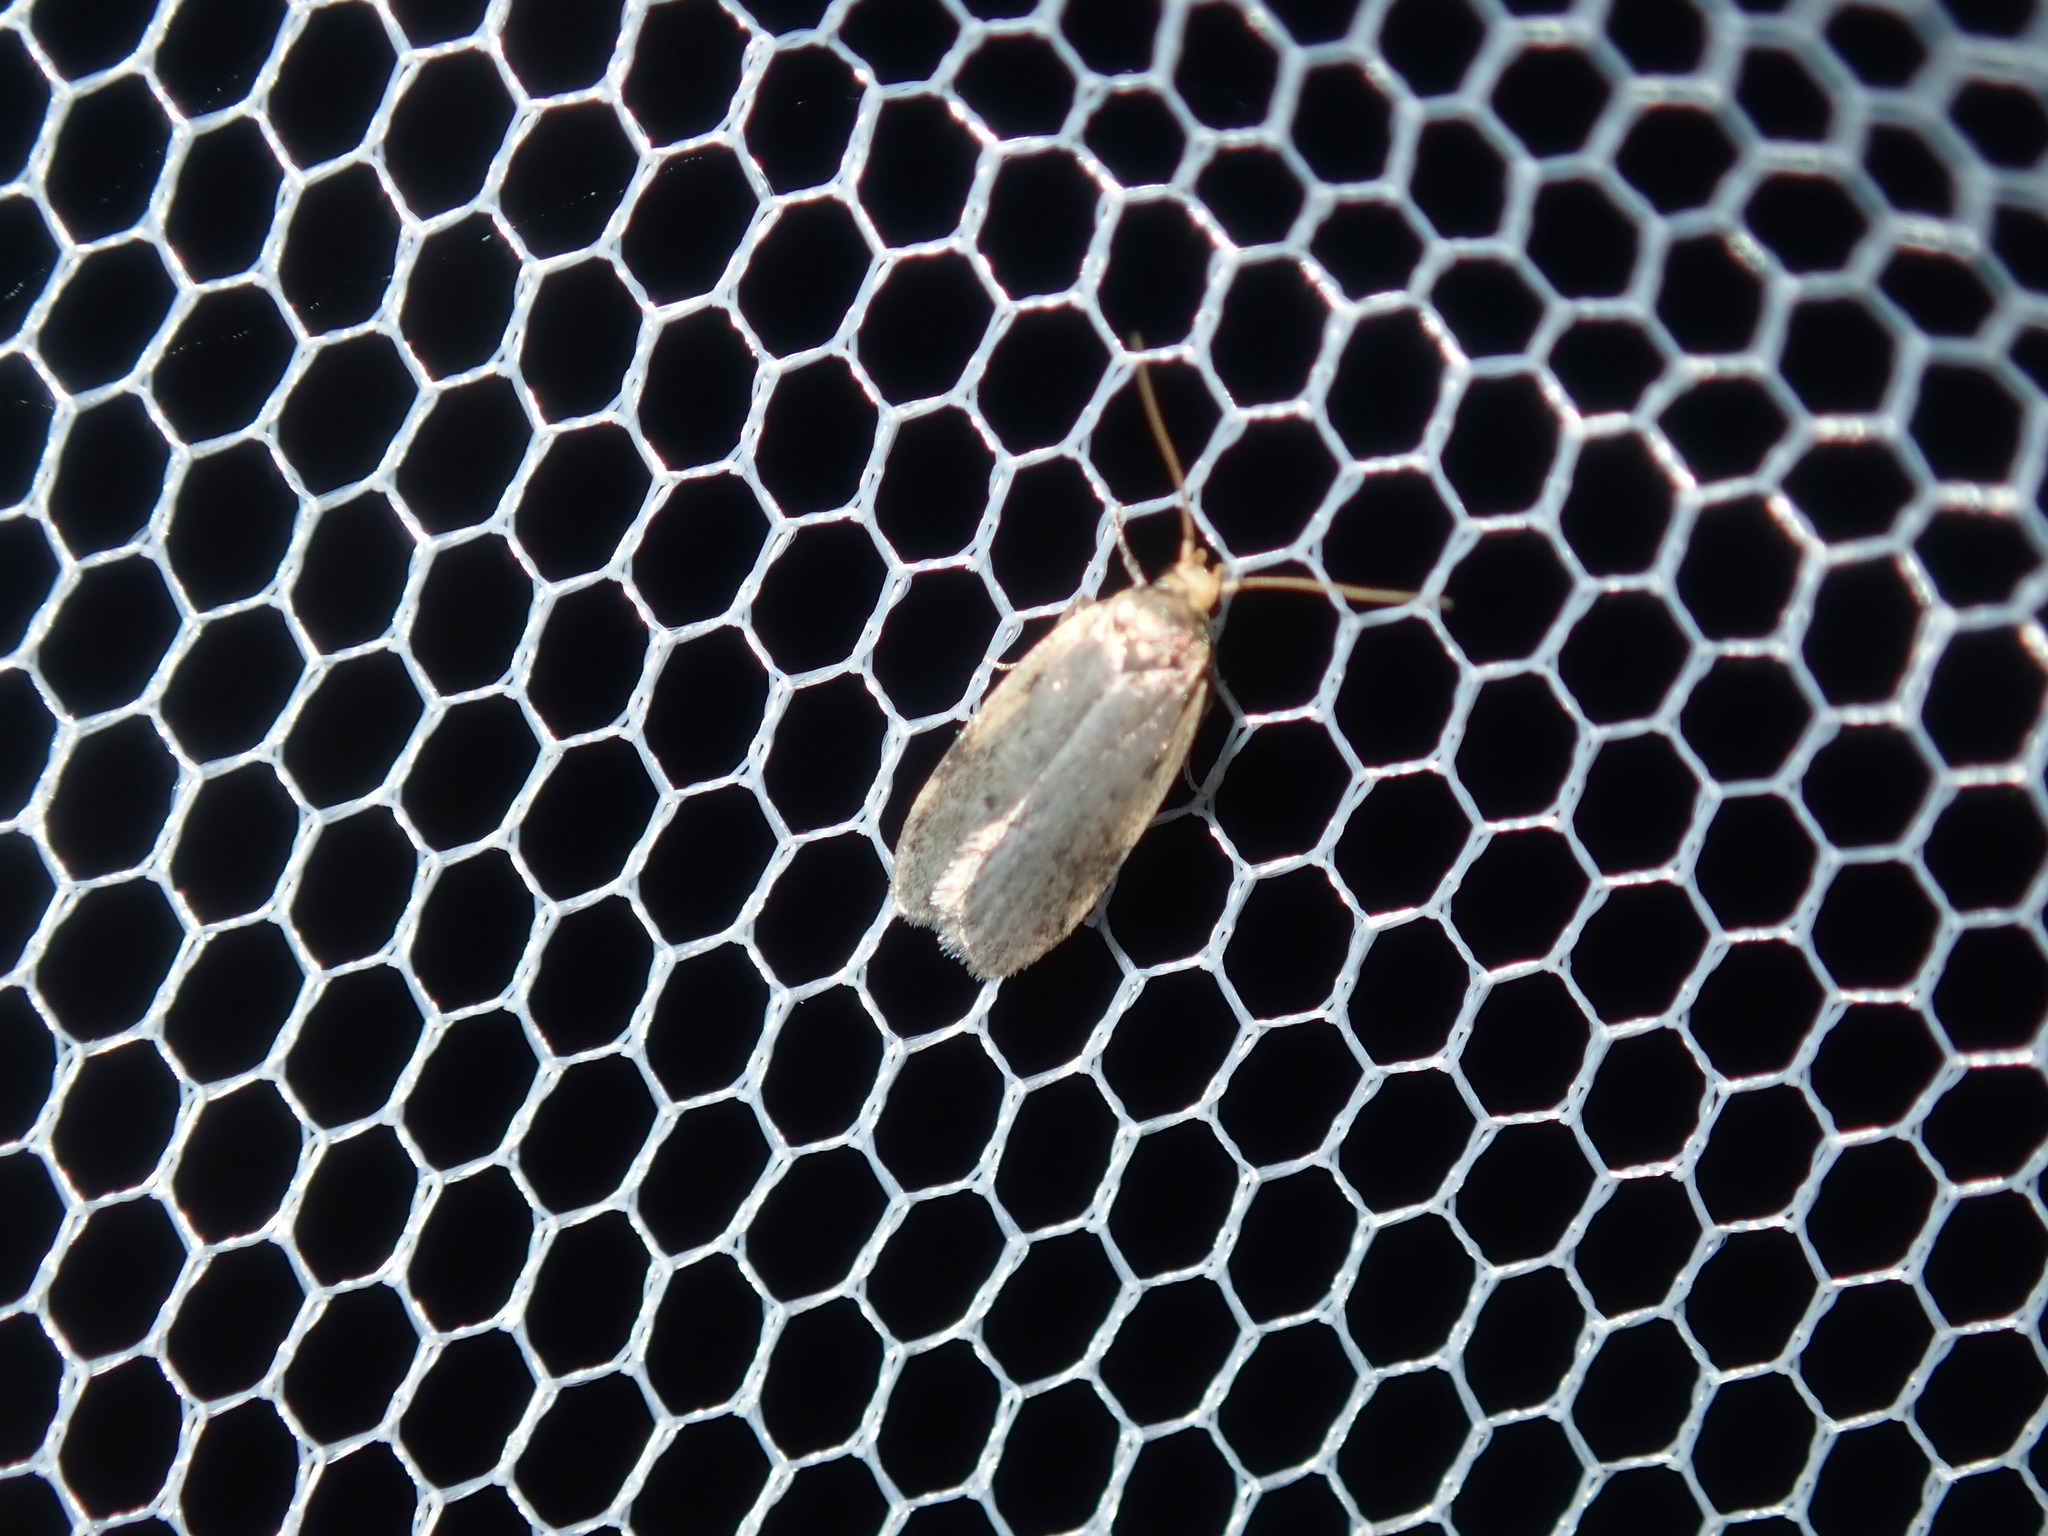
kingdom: Animalia
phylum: Arthropoda
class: Insecta
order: Lepidoptera
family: Oecophoridae
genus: Hoplostega
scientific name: Hoplostega ochroma
